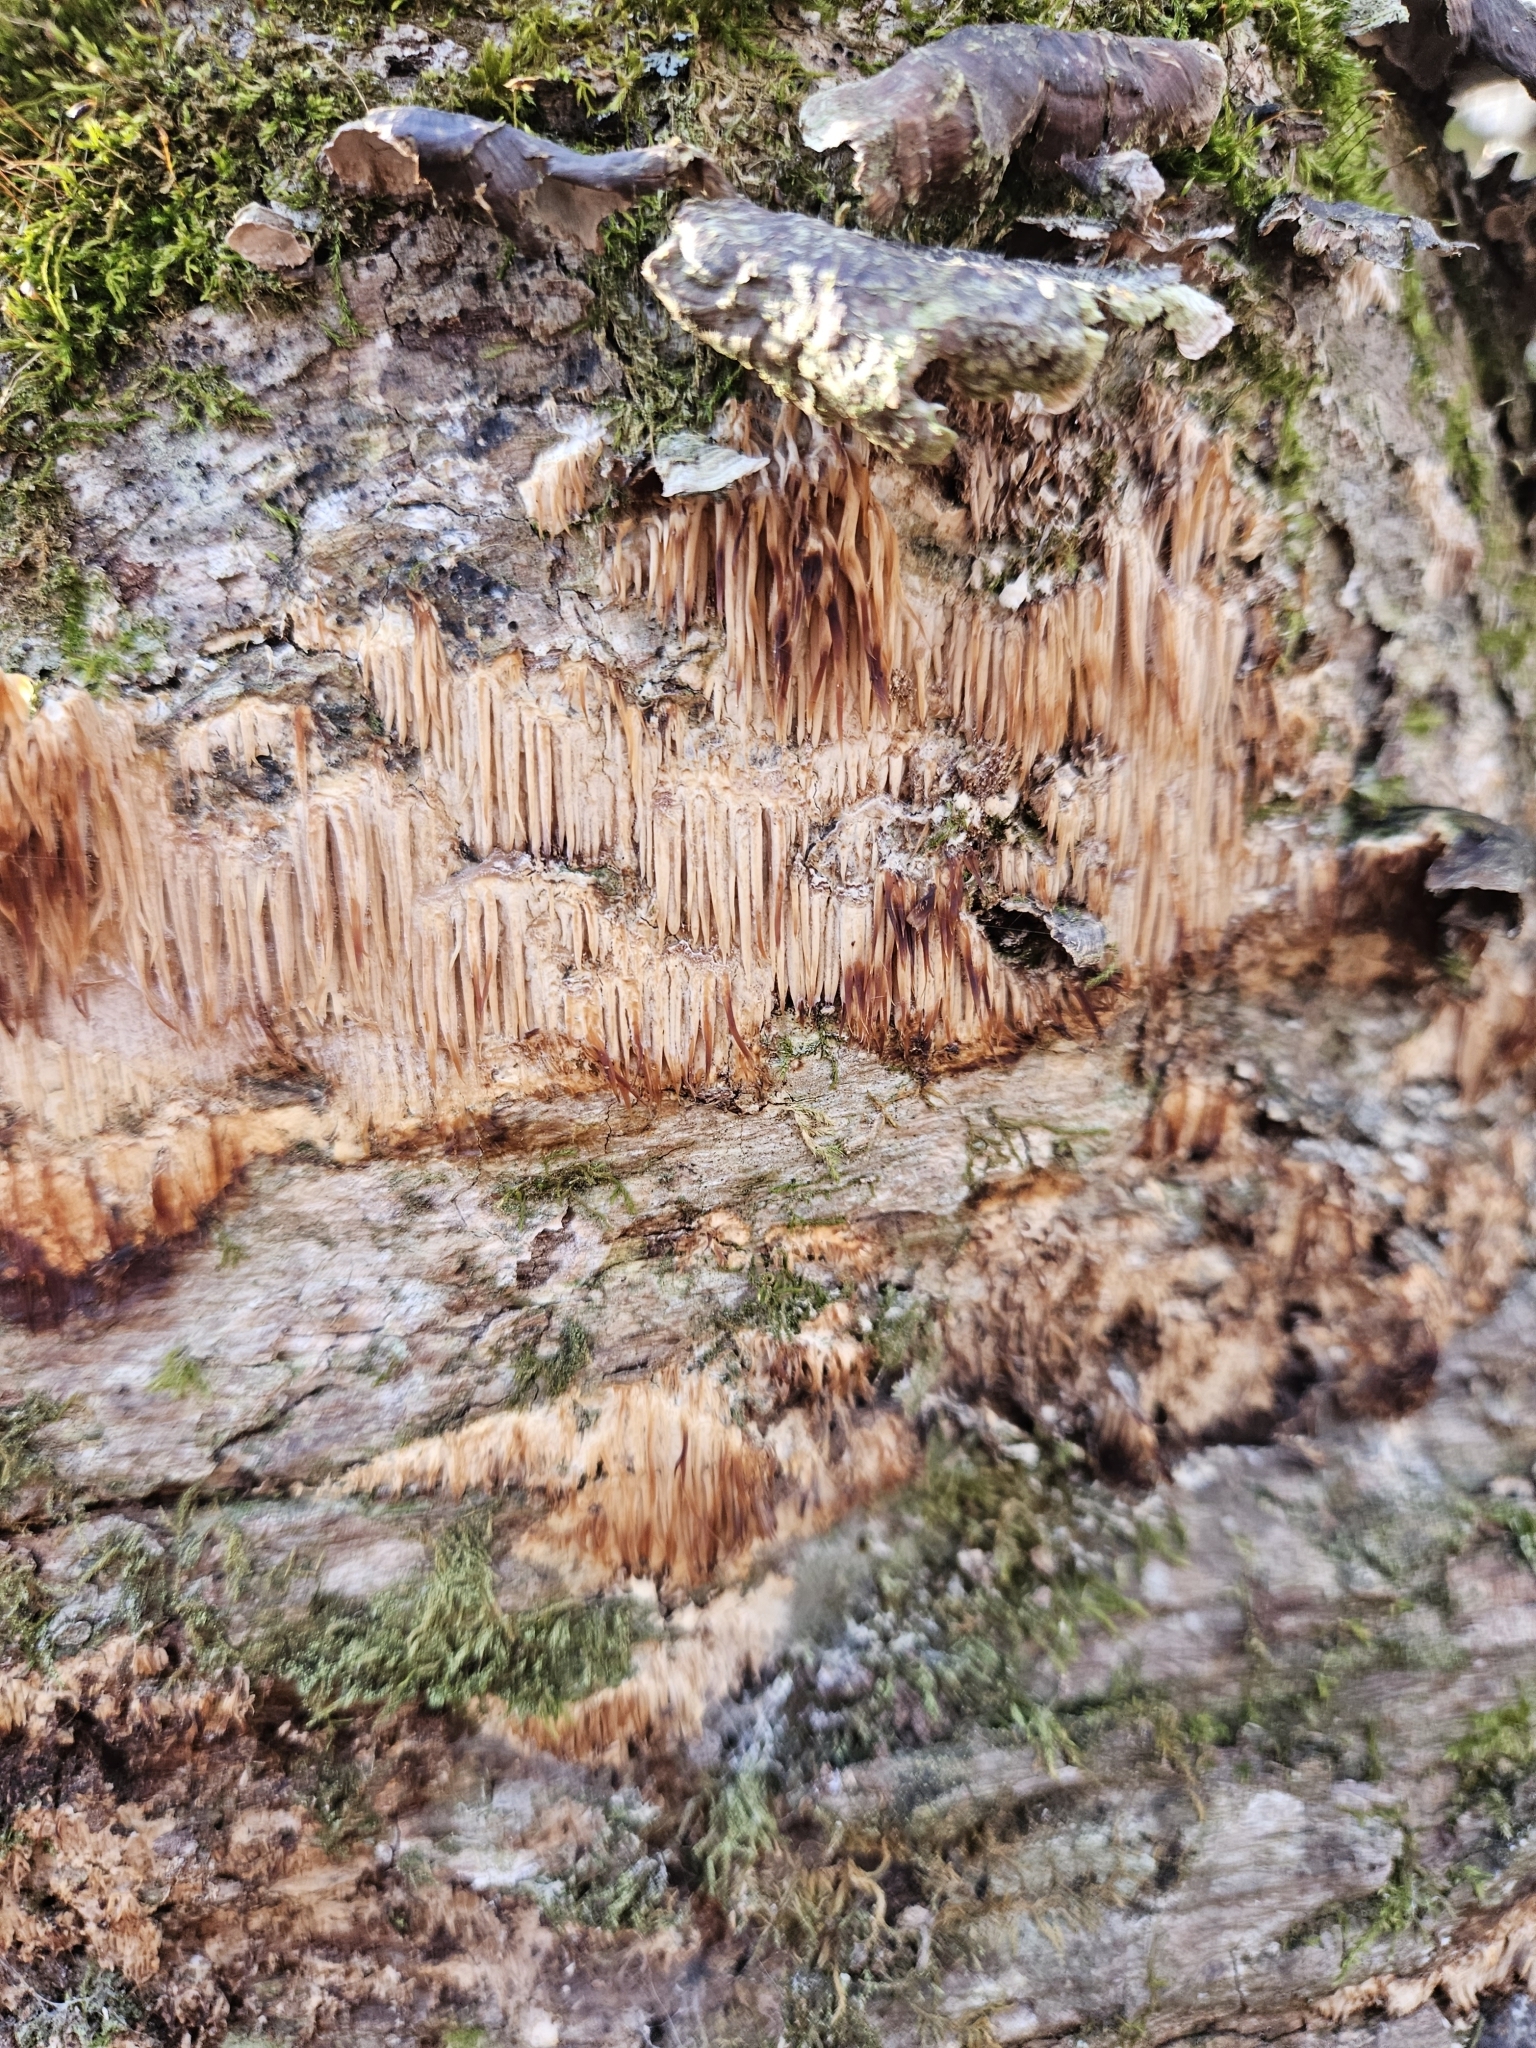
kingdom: Fungi
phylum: Basidiomycota
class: Agaricomycetes
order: Agaricales
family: Radulomycetaceae
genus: Radulomyces
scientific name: Radulomyces copelandii
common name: Asian beauty
